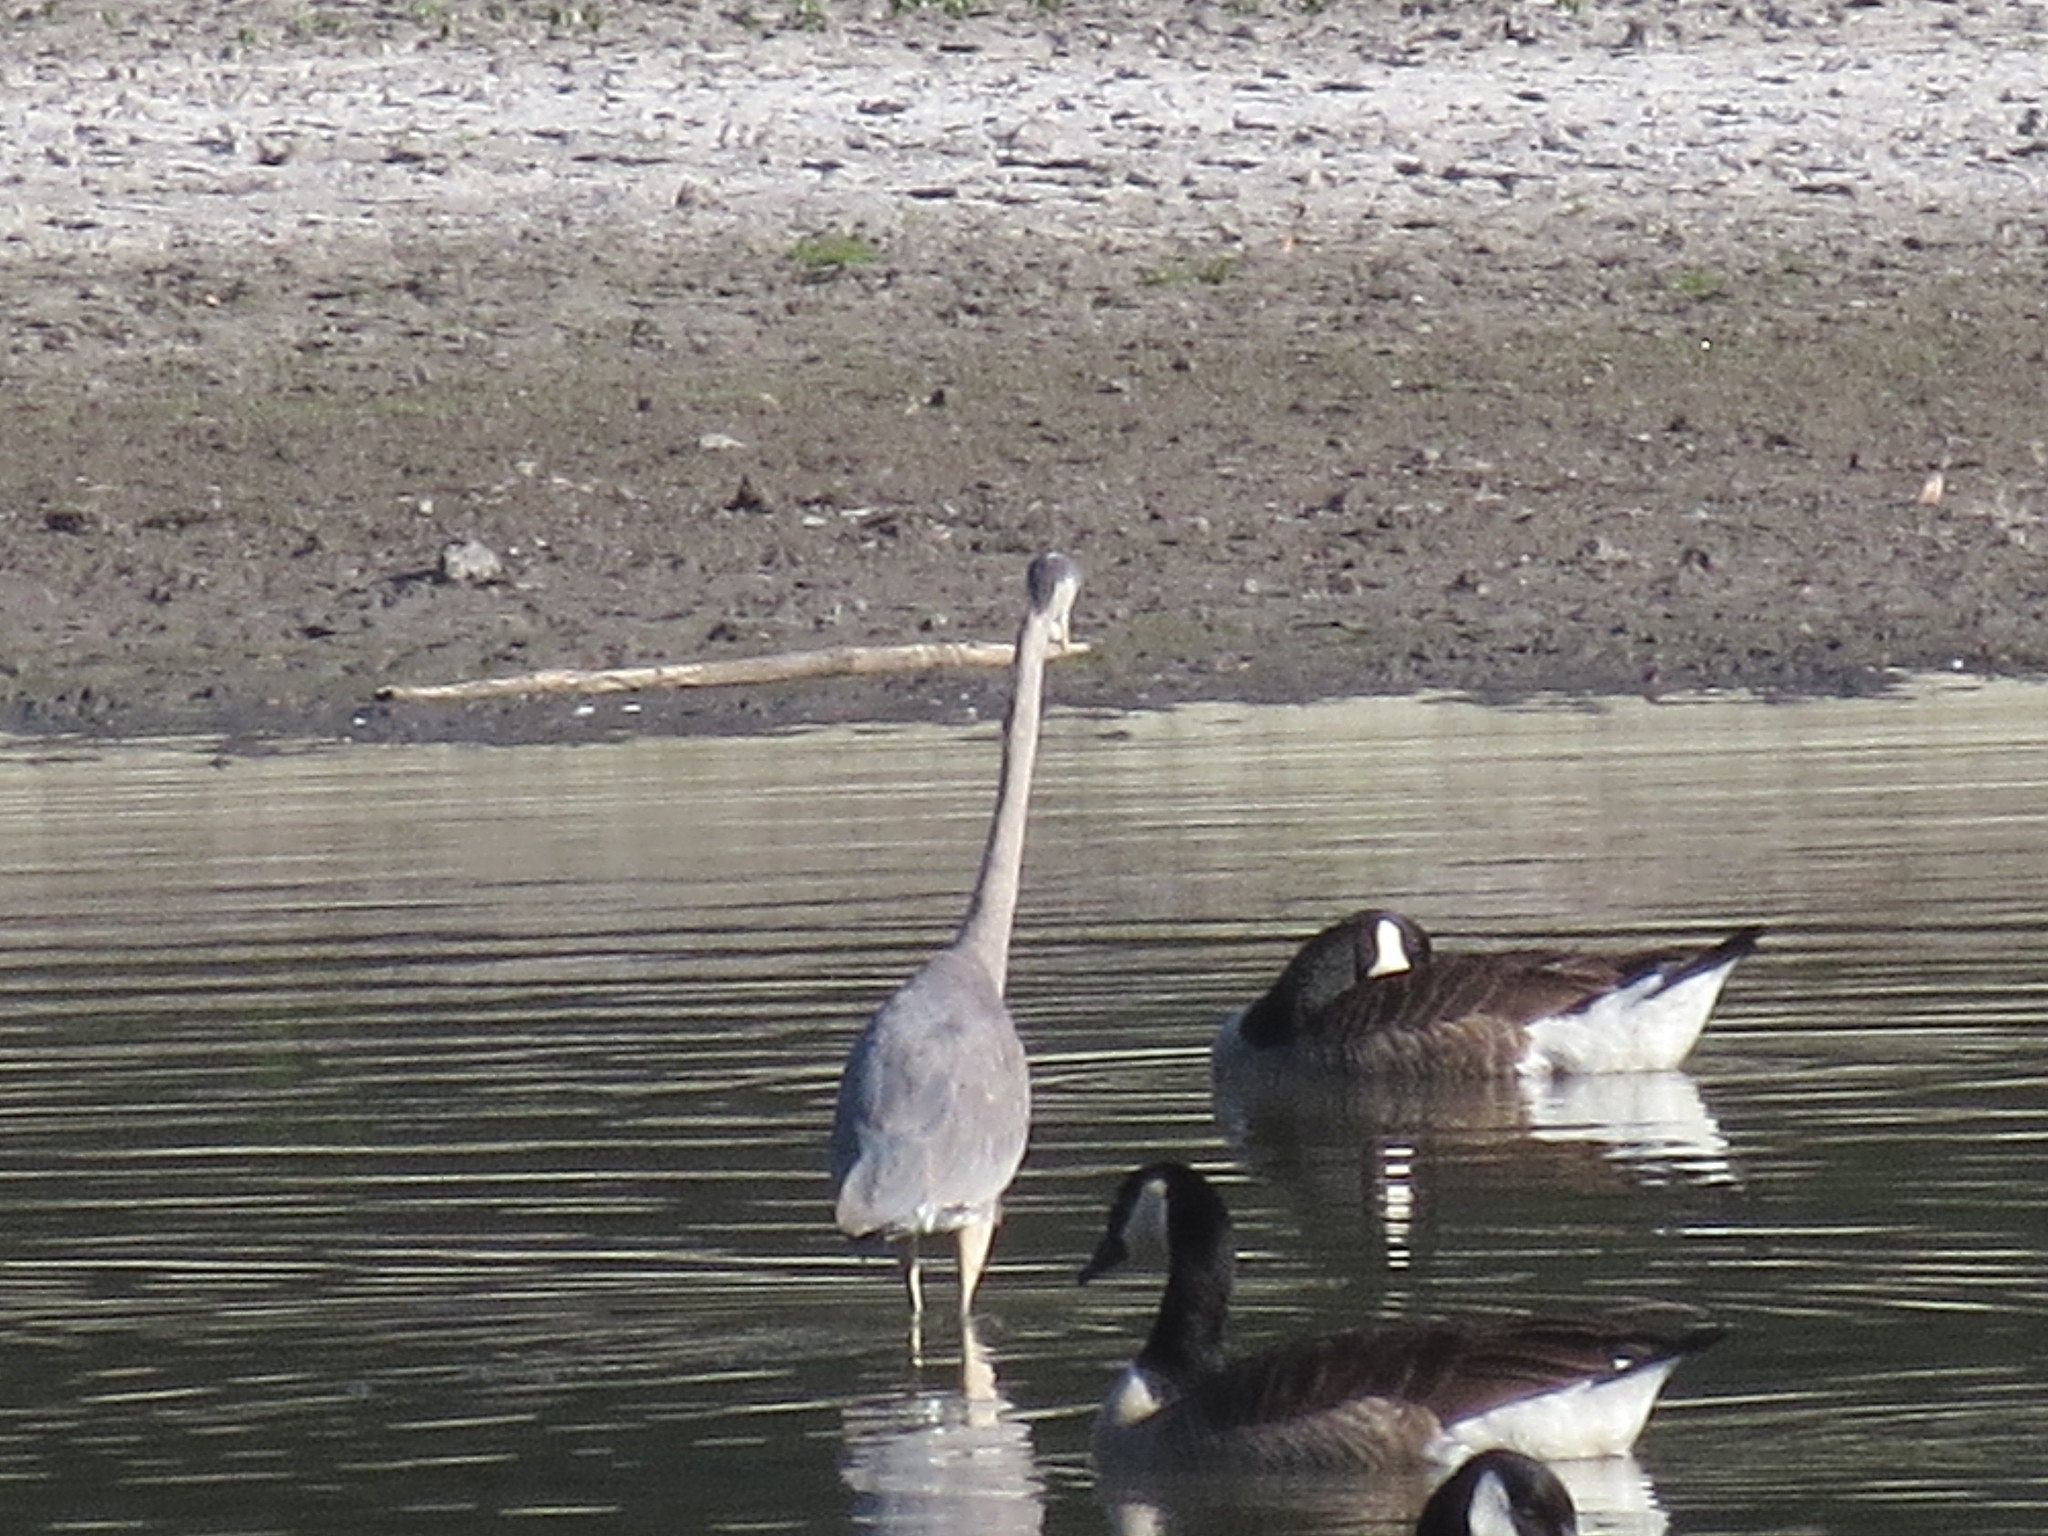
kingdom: Animalia
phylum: Chordata
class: Aves
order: Pelecaniformes
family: Ardeidae
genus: Ardea
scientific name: Ardea herodias
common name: Great blue heron
